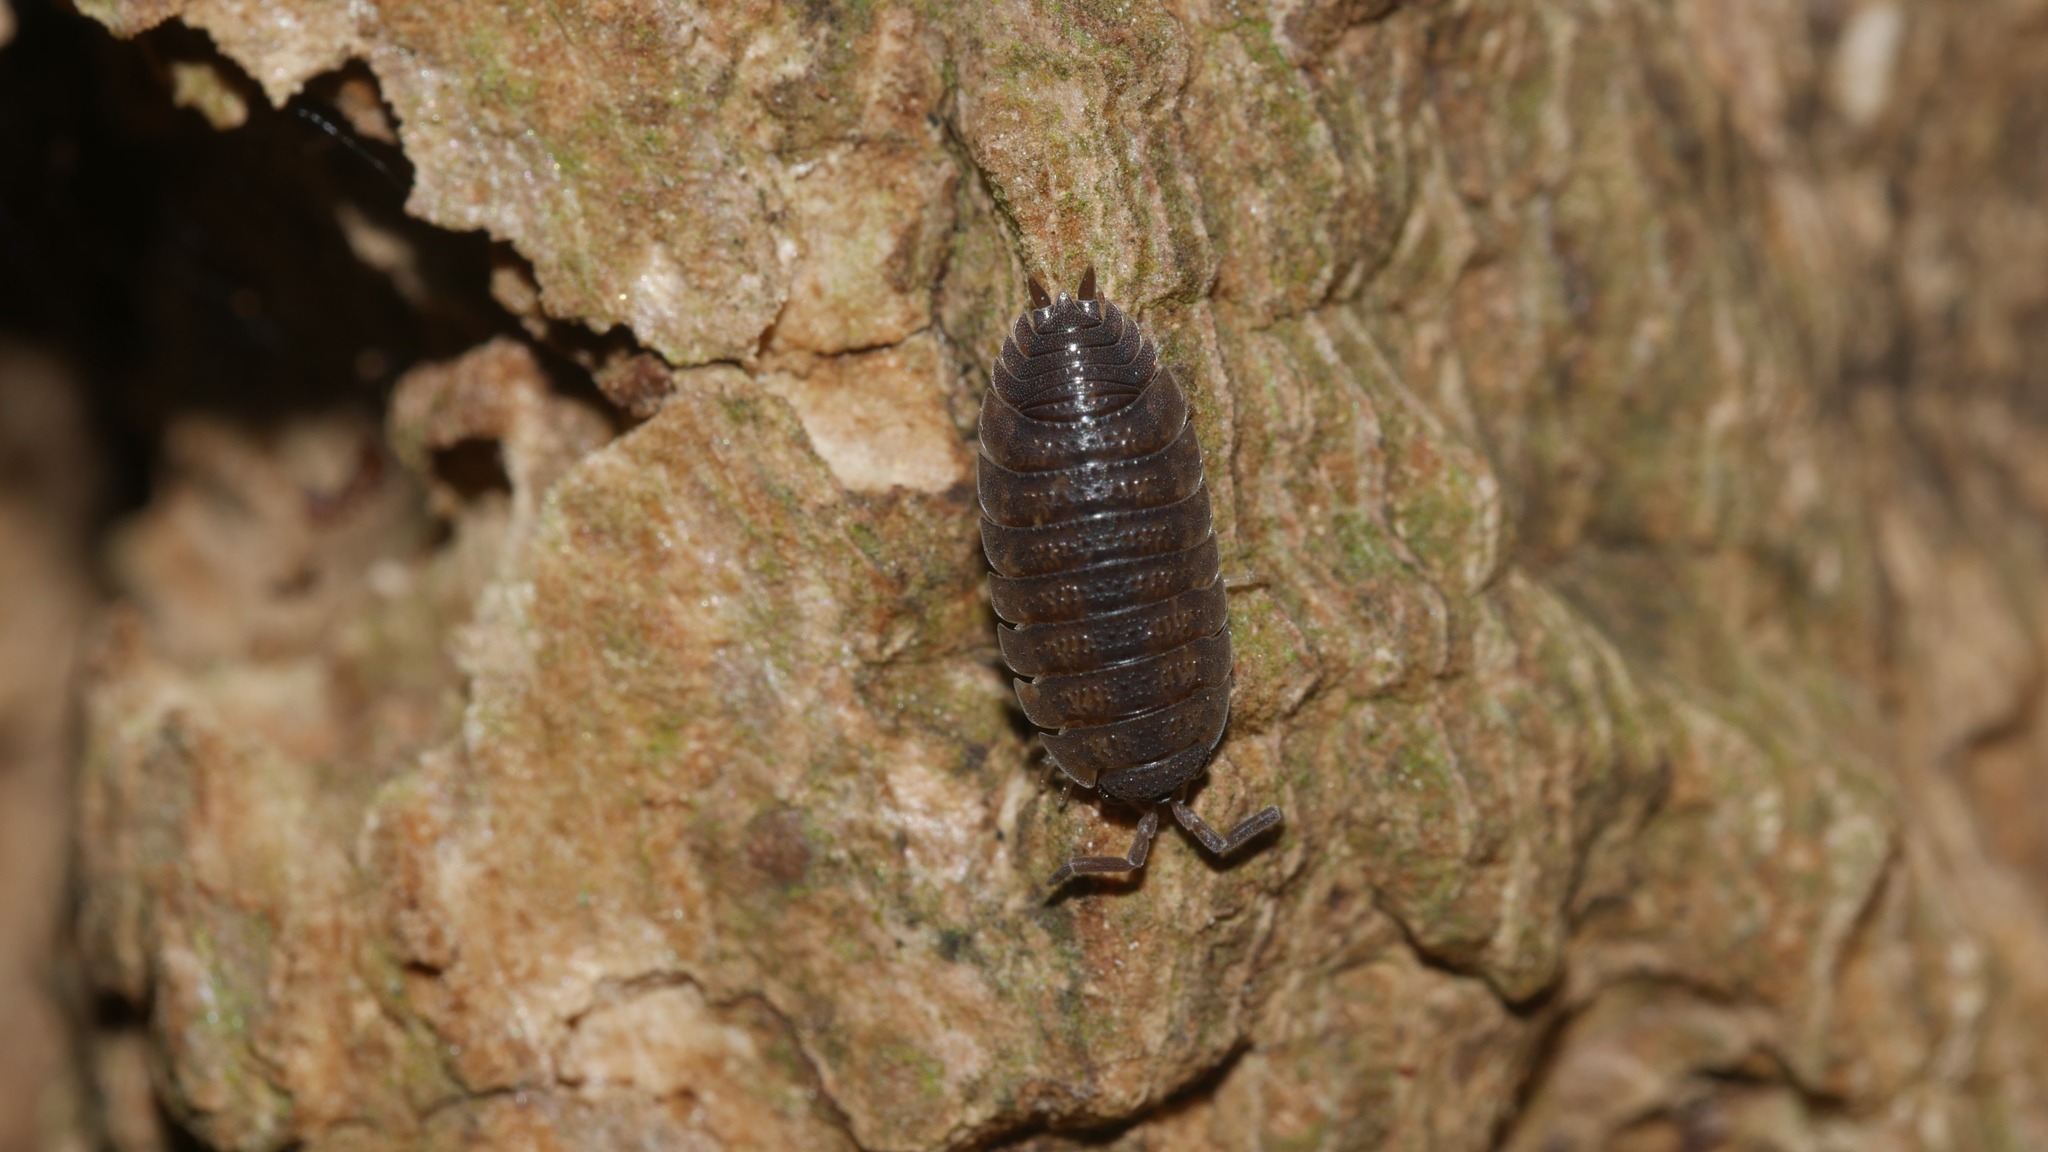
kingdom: Animalia
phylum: Arthropoda
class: Malacostraca
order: Isopoda
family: Porcellionidae
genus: Porcellio
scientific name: Porcellio scaber
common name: Common rough woodlouse
